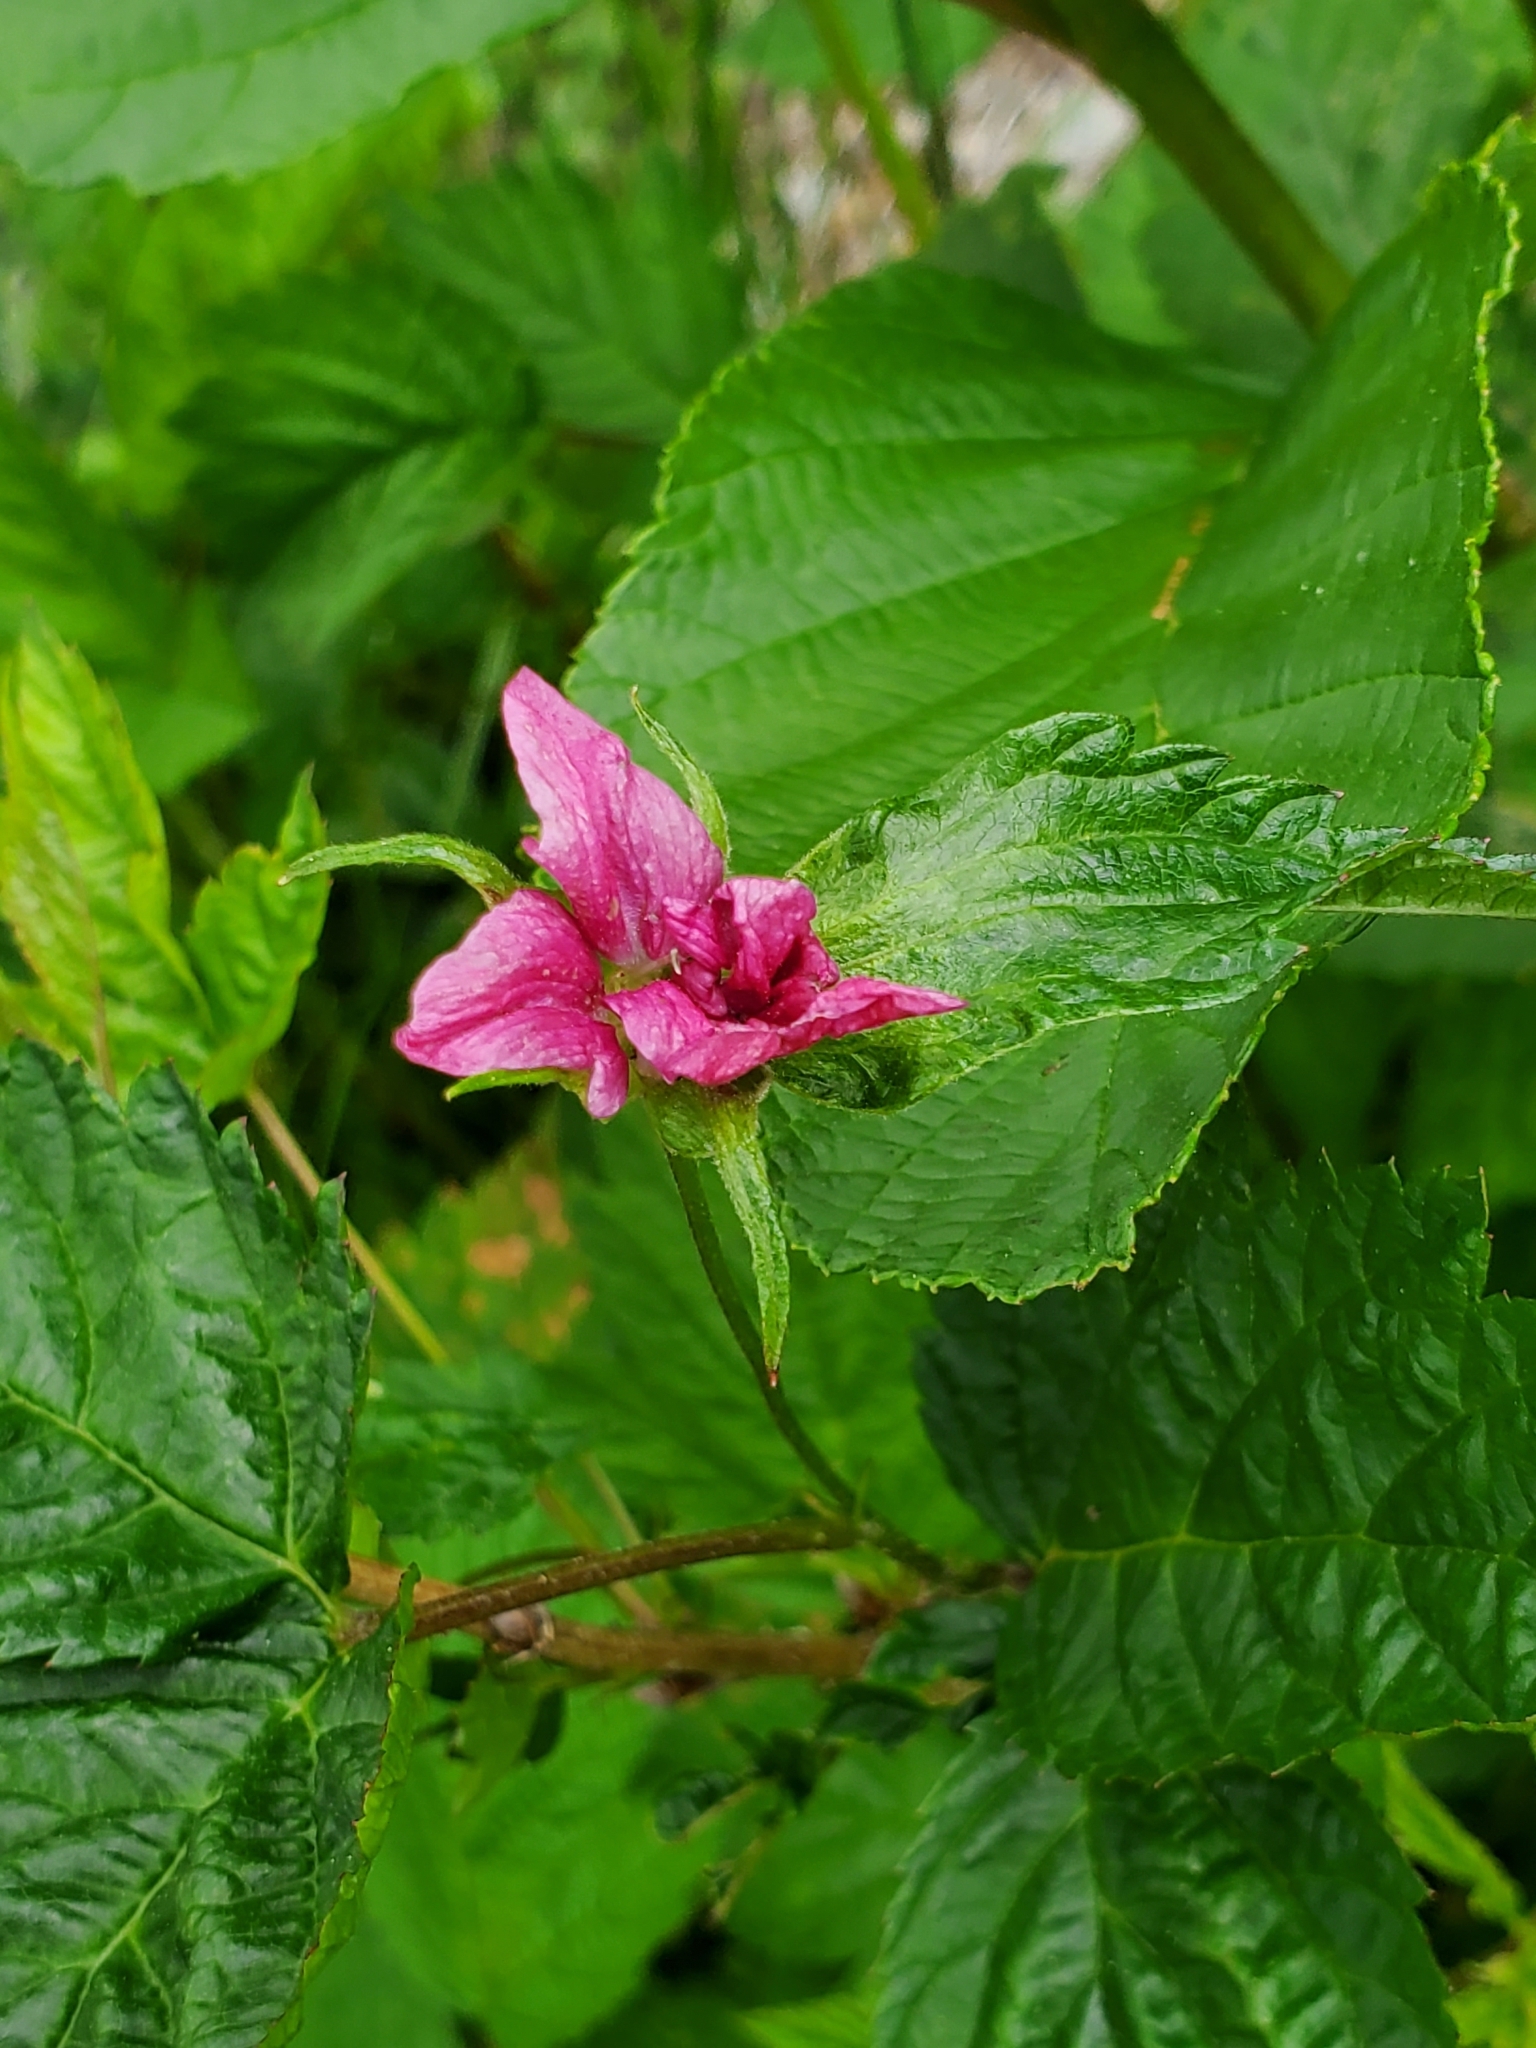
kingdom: Plantae
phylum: Tracheophyta
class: Magnoliopsida
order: Rosales
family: Rosaceae
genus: Rubus
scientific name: Rubus spectabilis
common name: Salmonberry
